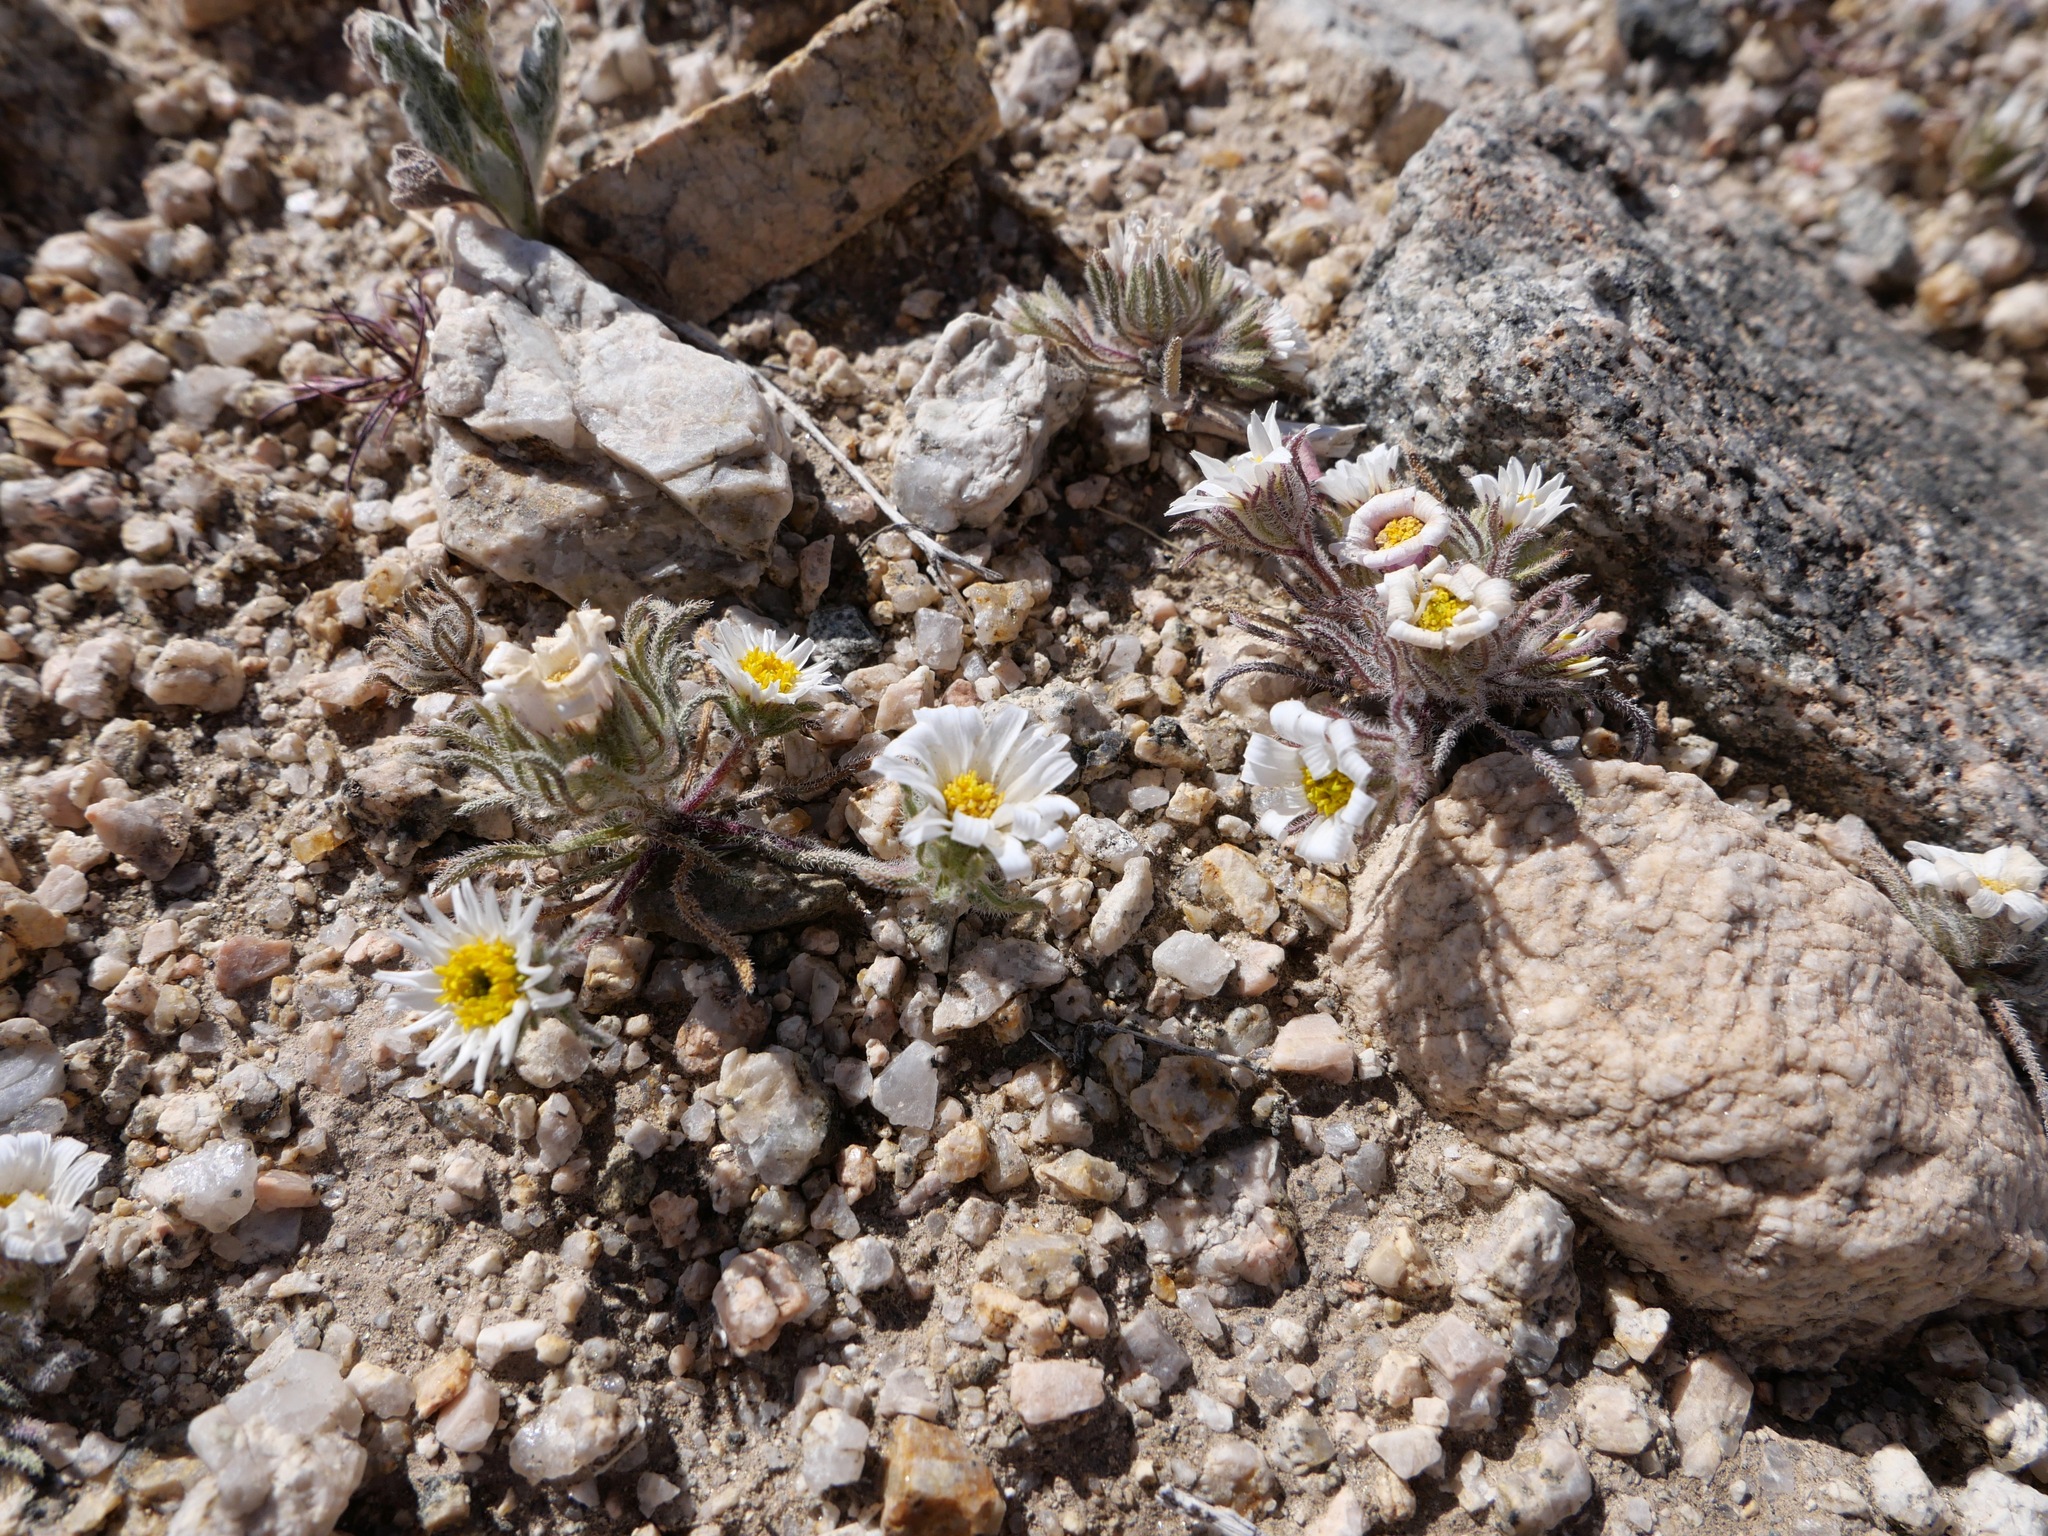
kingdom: Plantae
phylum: Tracheophyta
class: Magnoliopsida
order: Asterales
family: Asteraceae
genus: Monoptilon
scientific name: Monoptilon bellioides
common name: Bristly desertstar
